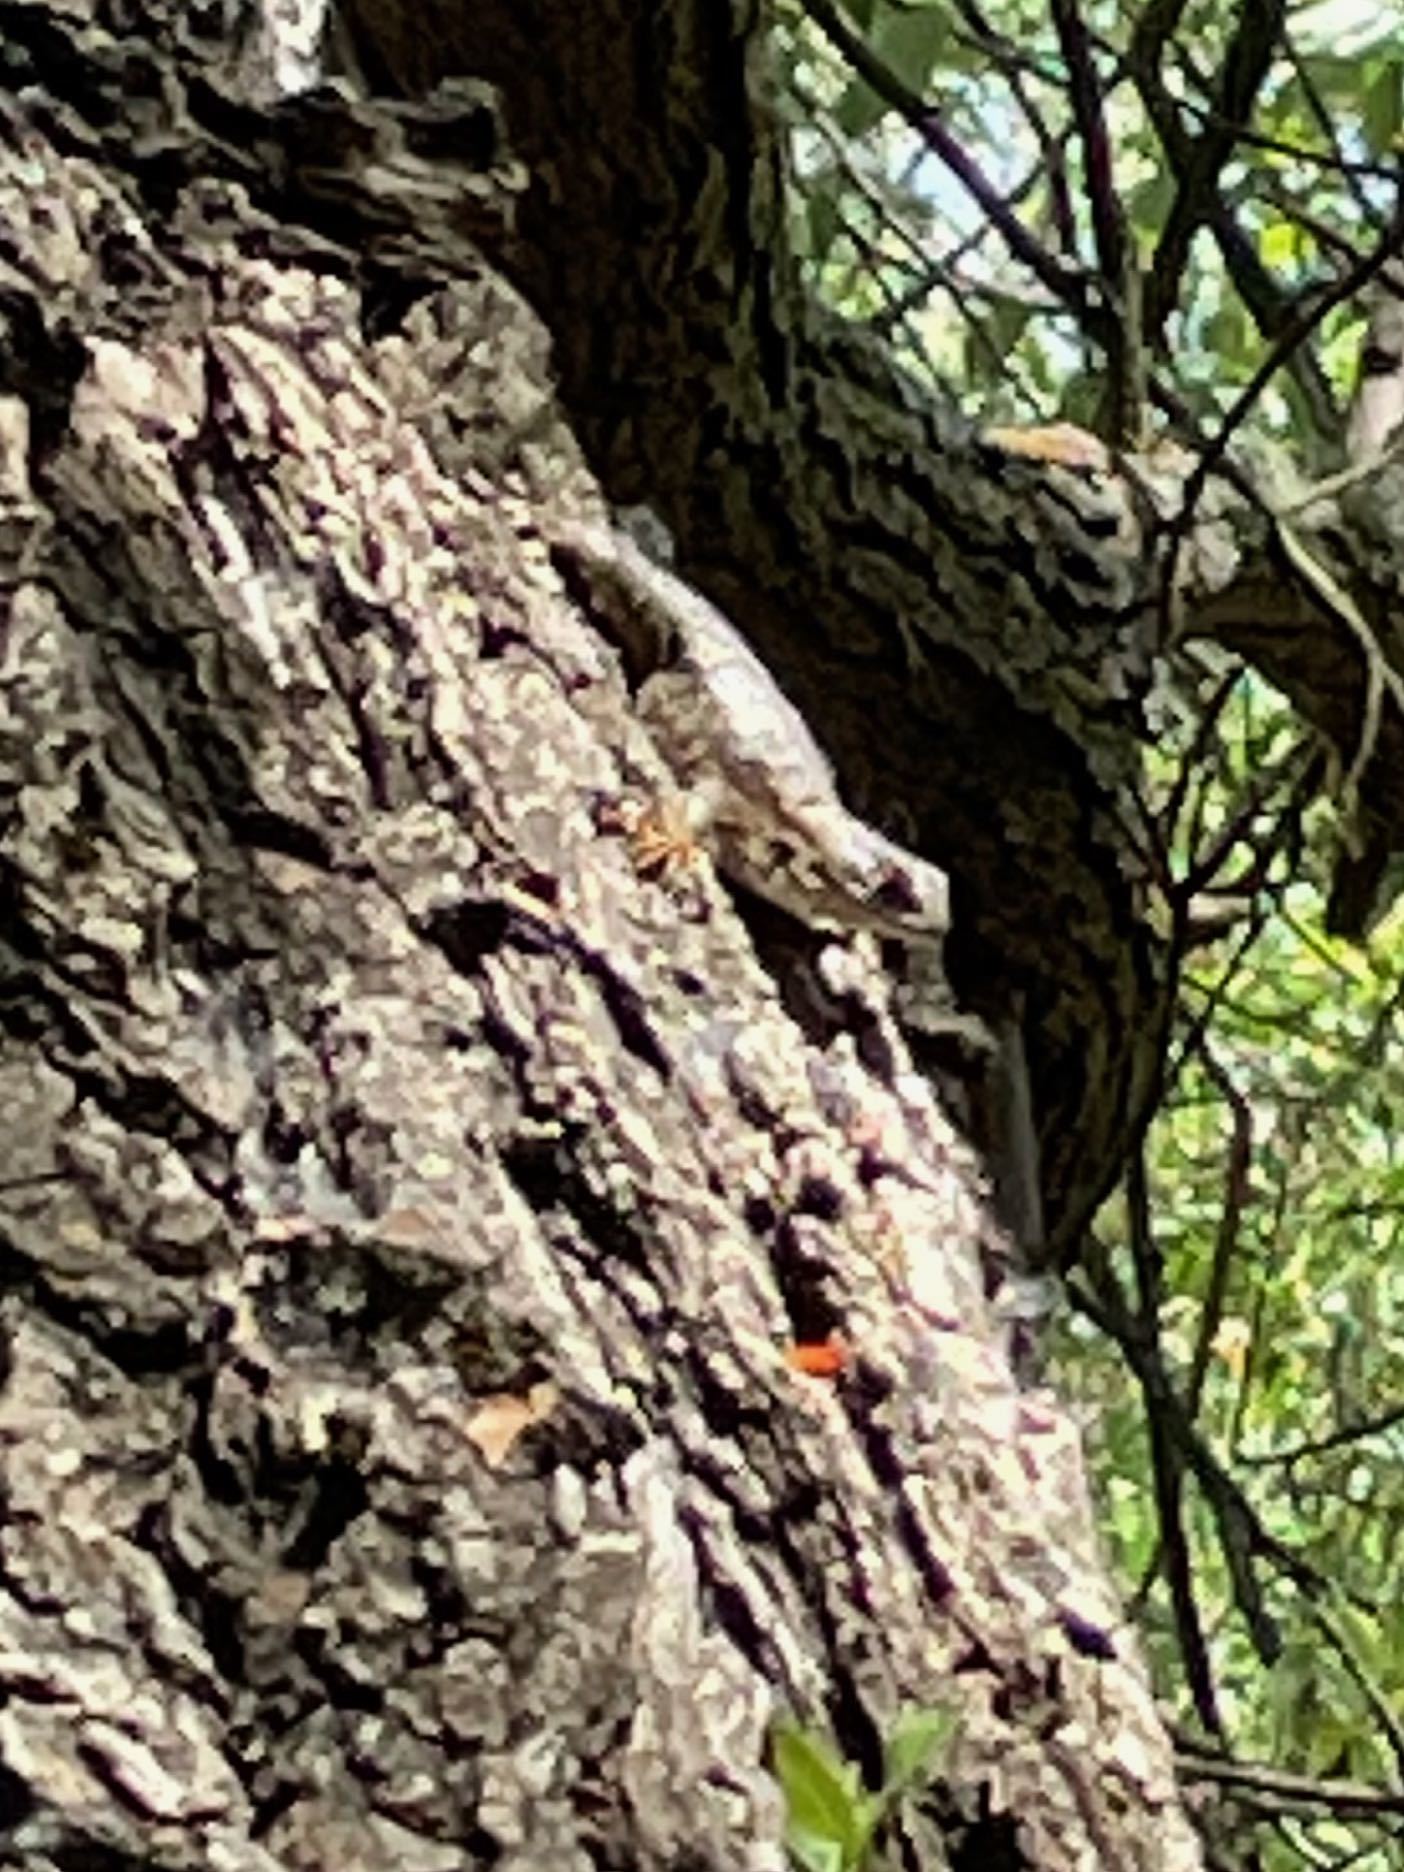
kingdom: Animalia
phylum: Chordata
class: Squamata
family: Phrynosomatidae
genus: Sceloporus
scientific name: Sceloporus occidentalis
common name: Western fence lizard
